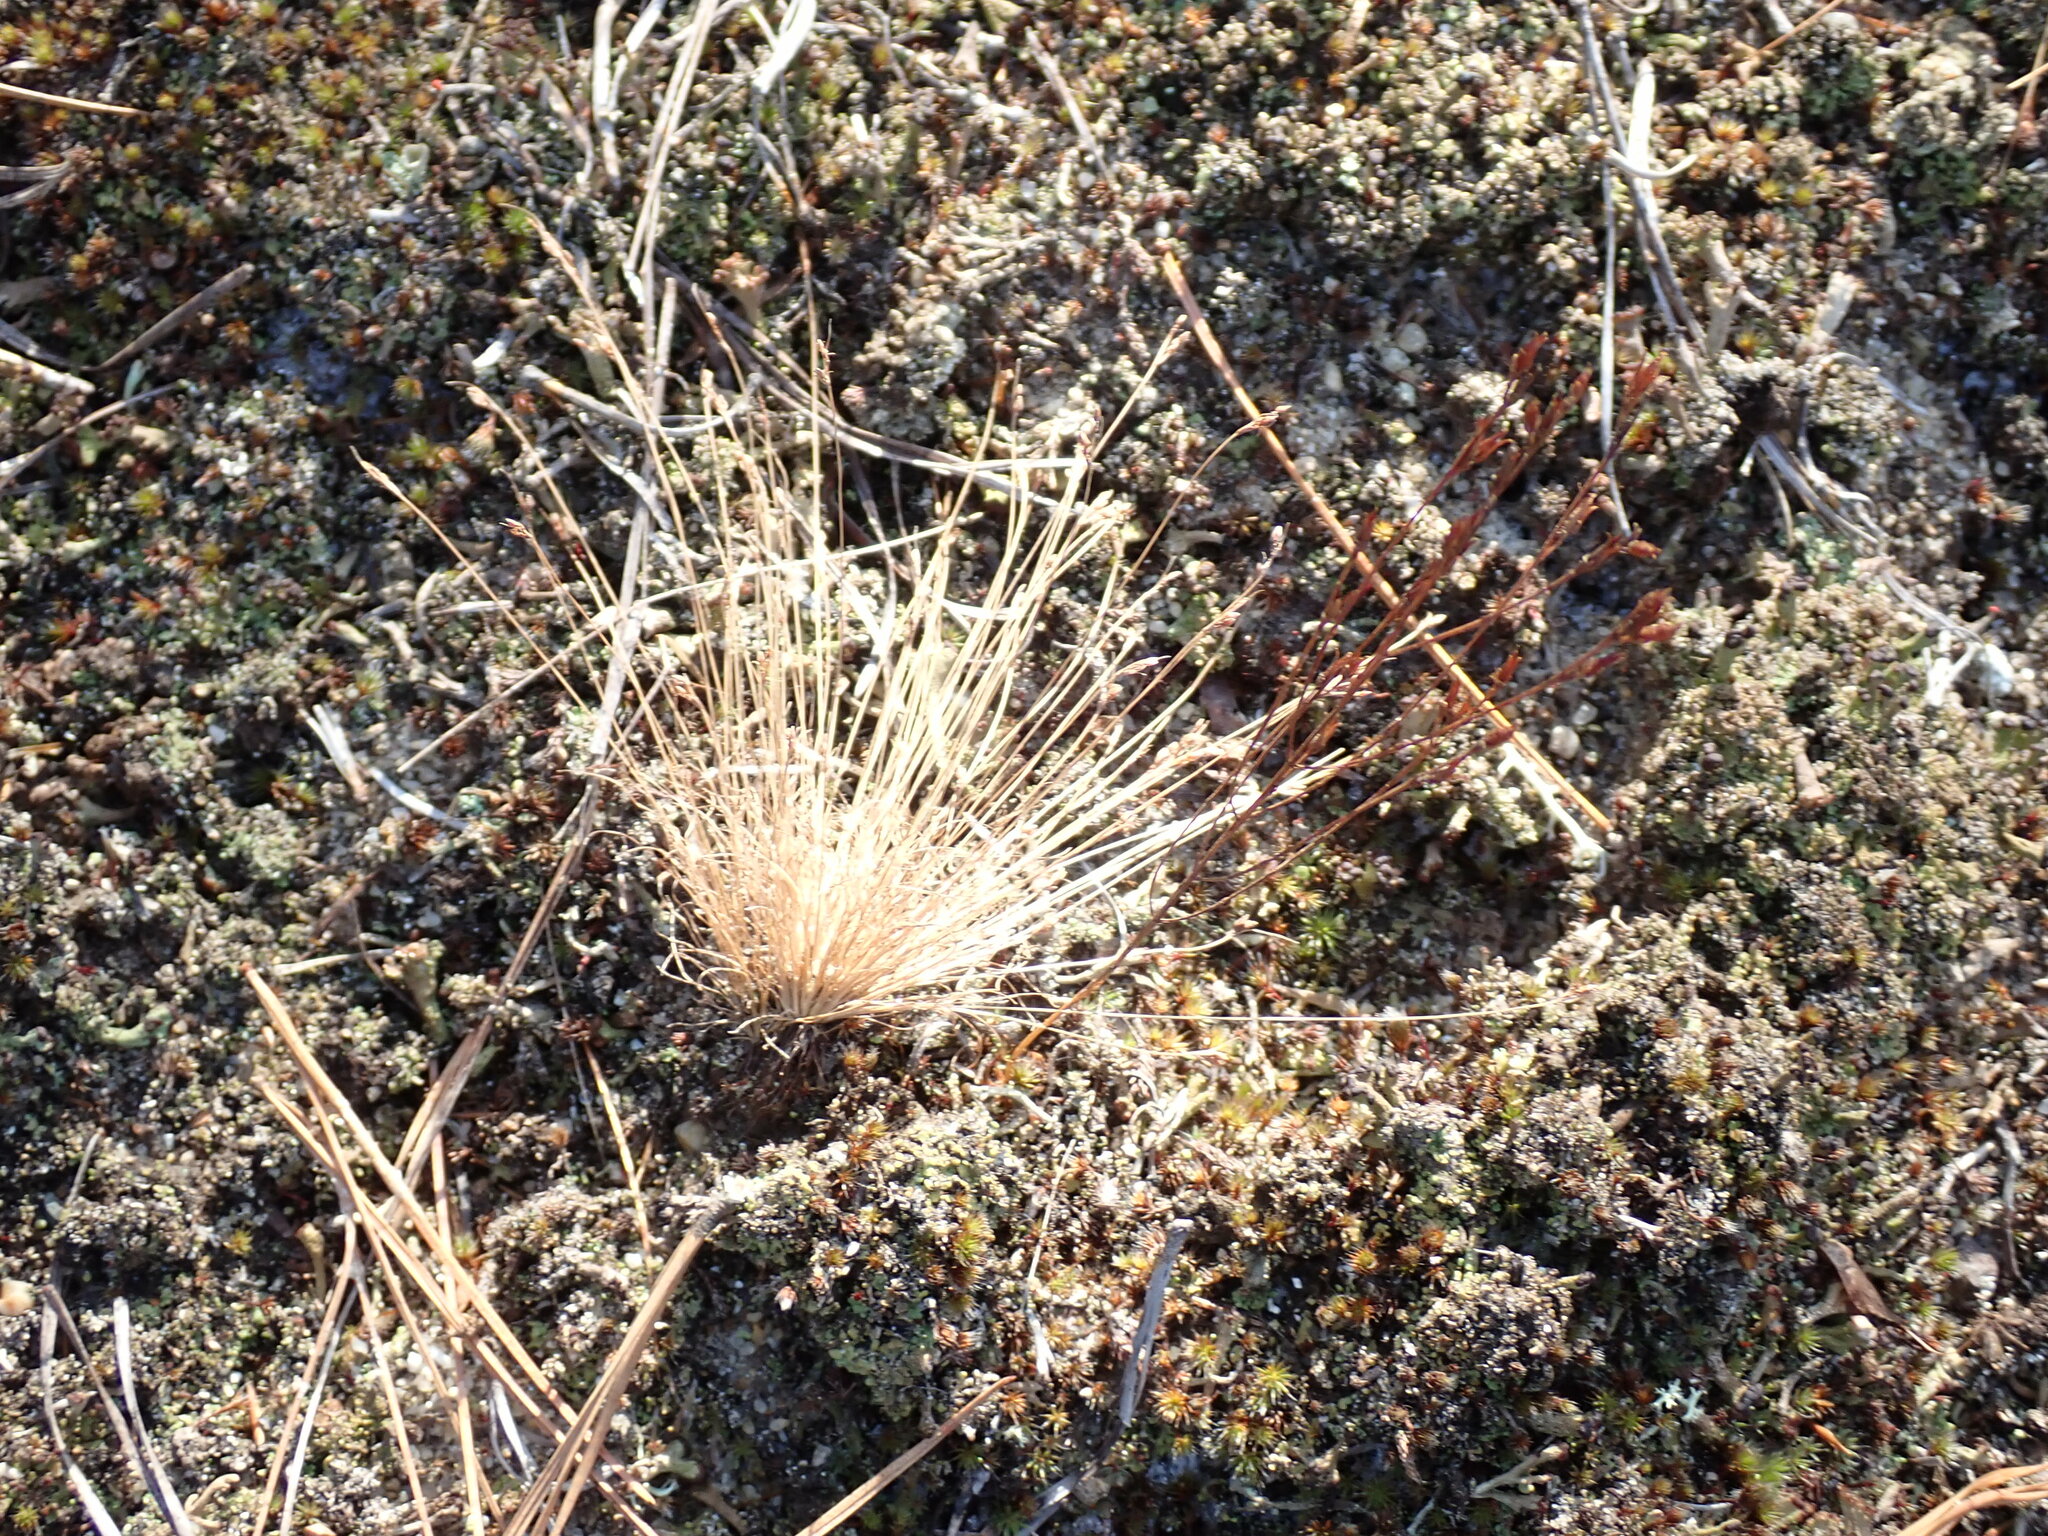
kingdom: Plantae
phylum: Tracheophyta
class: Liliopsida
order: Poales
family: Cyperaceae
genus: Bulbostylis
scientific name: Bulbostylis capillaris
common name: Densetuft hairsedge
